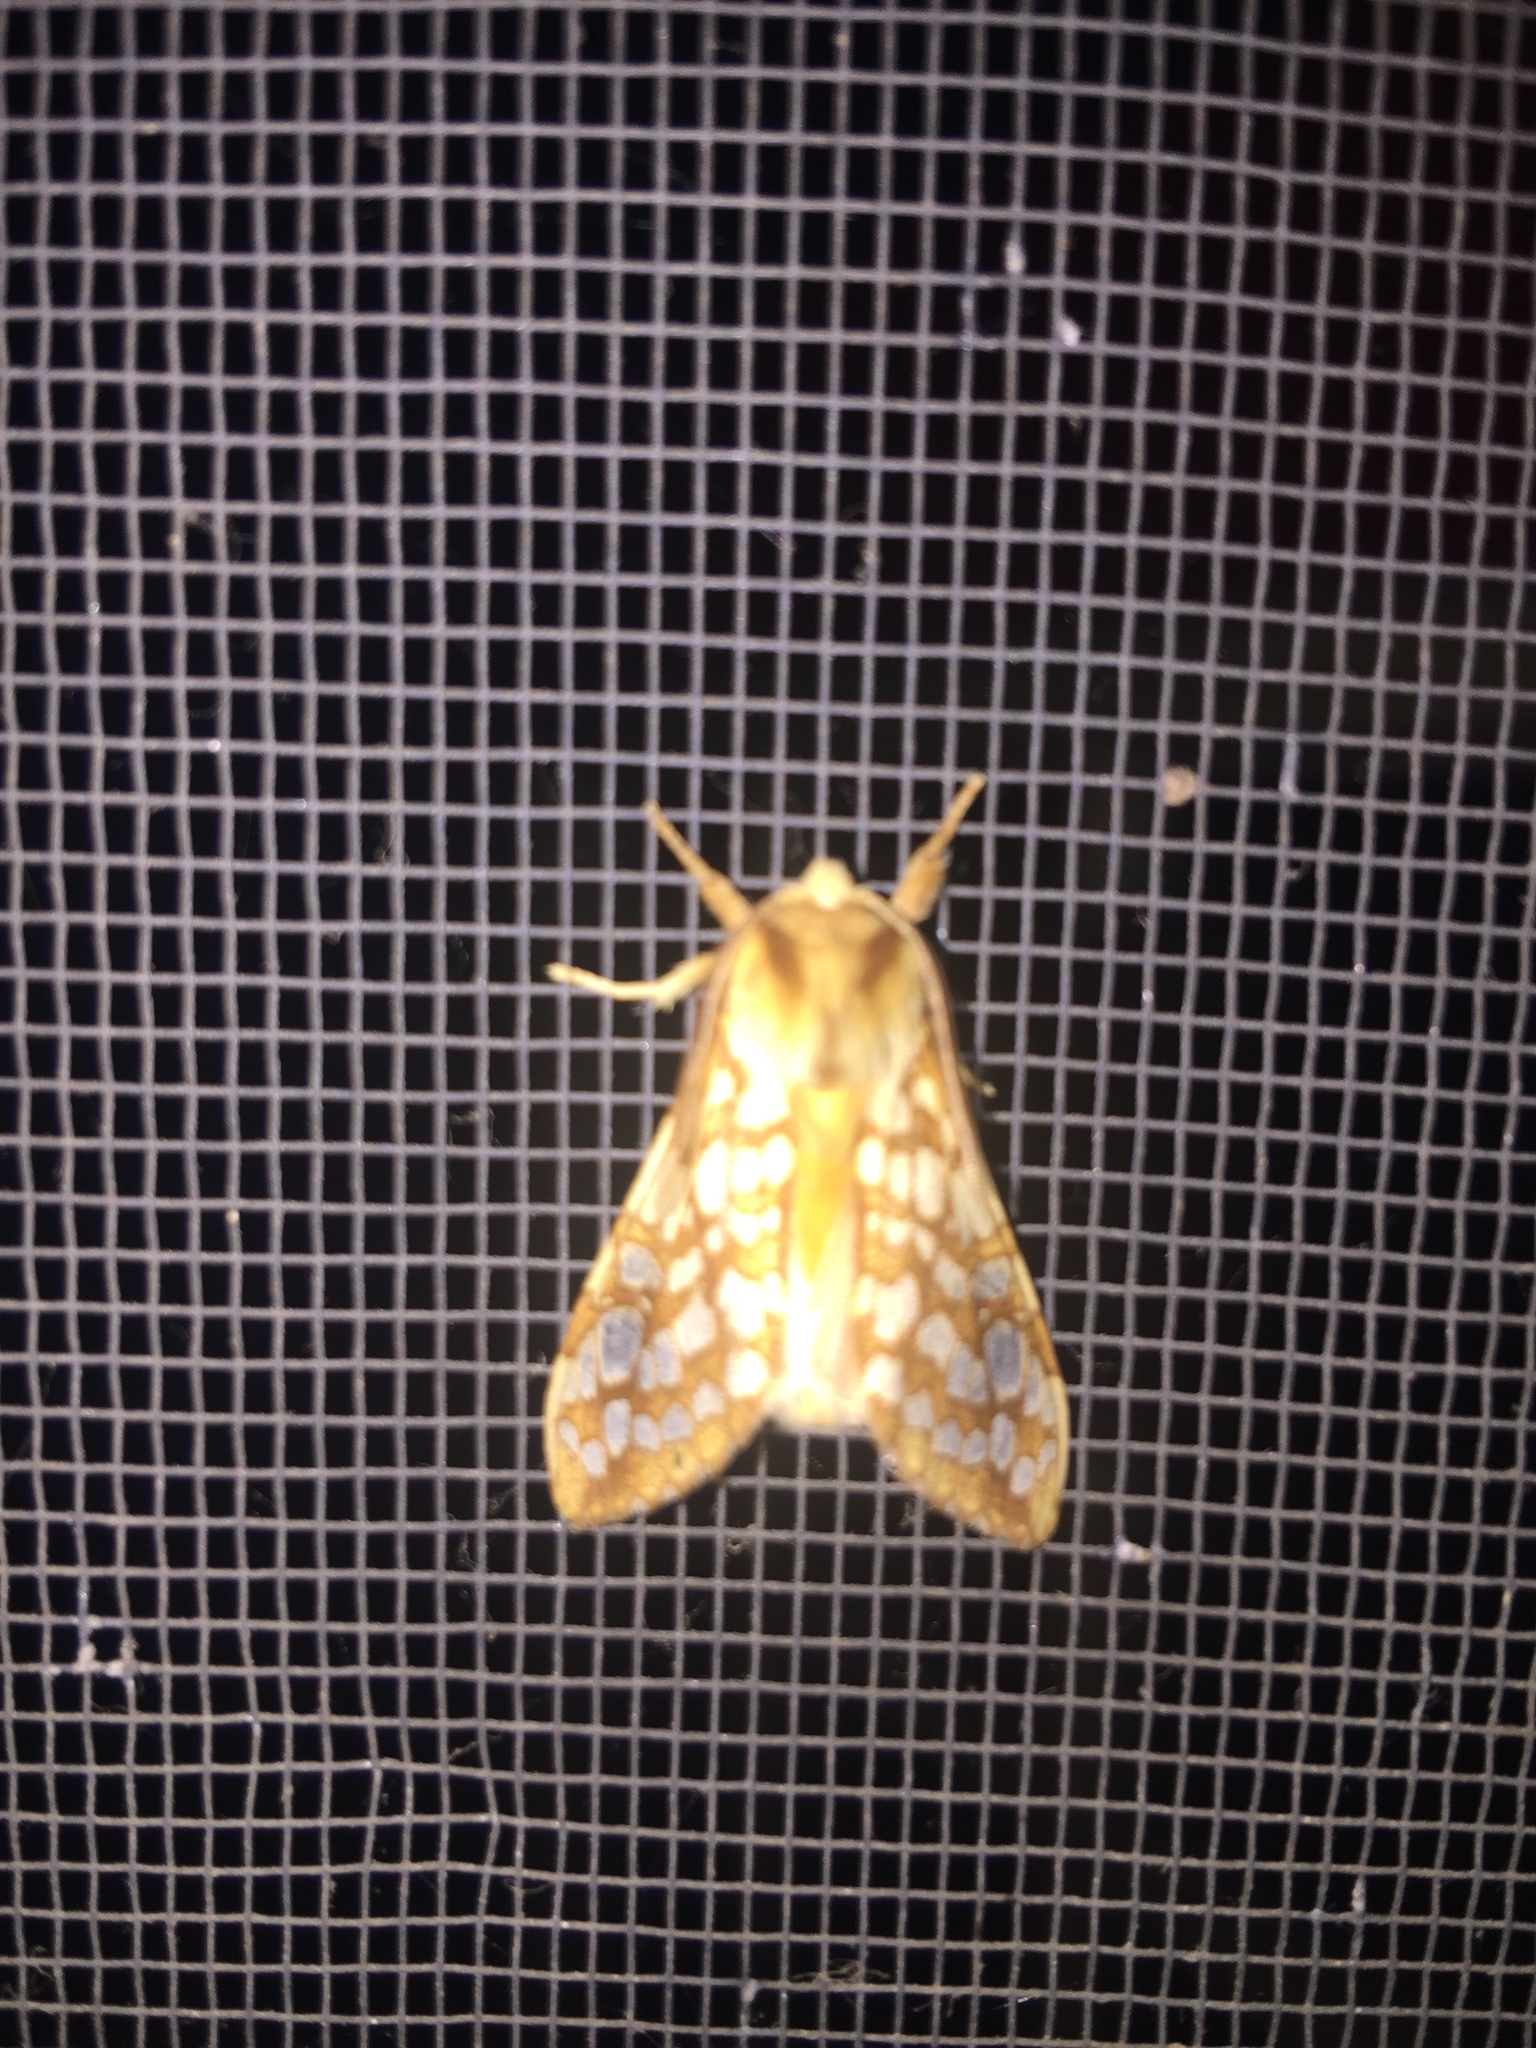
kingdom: Animalia
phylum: Arthropoda
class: Insecta
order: Lepidoptera
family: Erebidae
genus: Lophocampa
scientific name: Lophocampa caryae
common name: Hickory tussock moth
